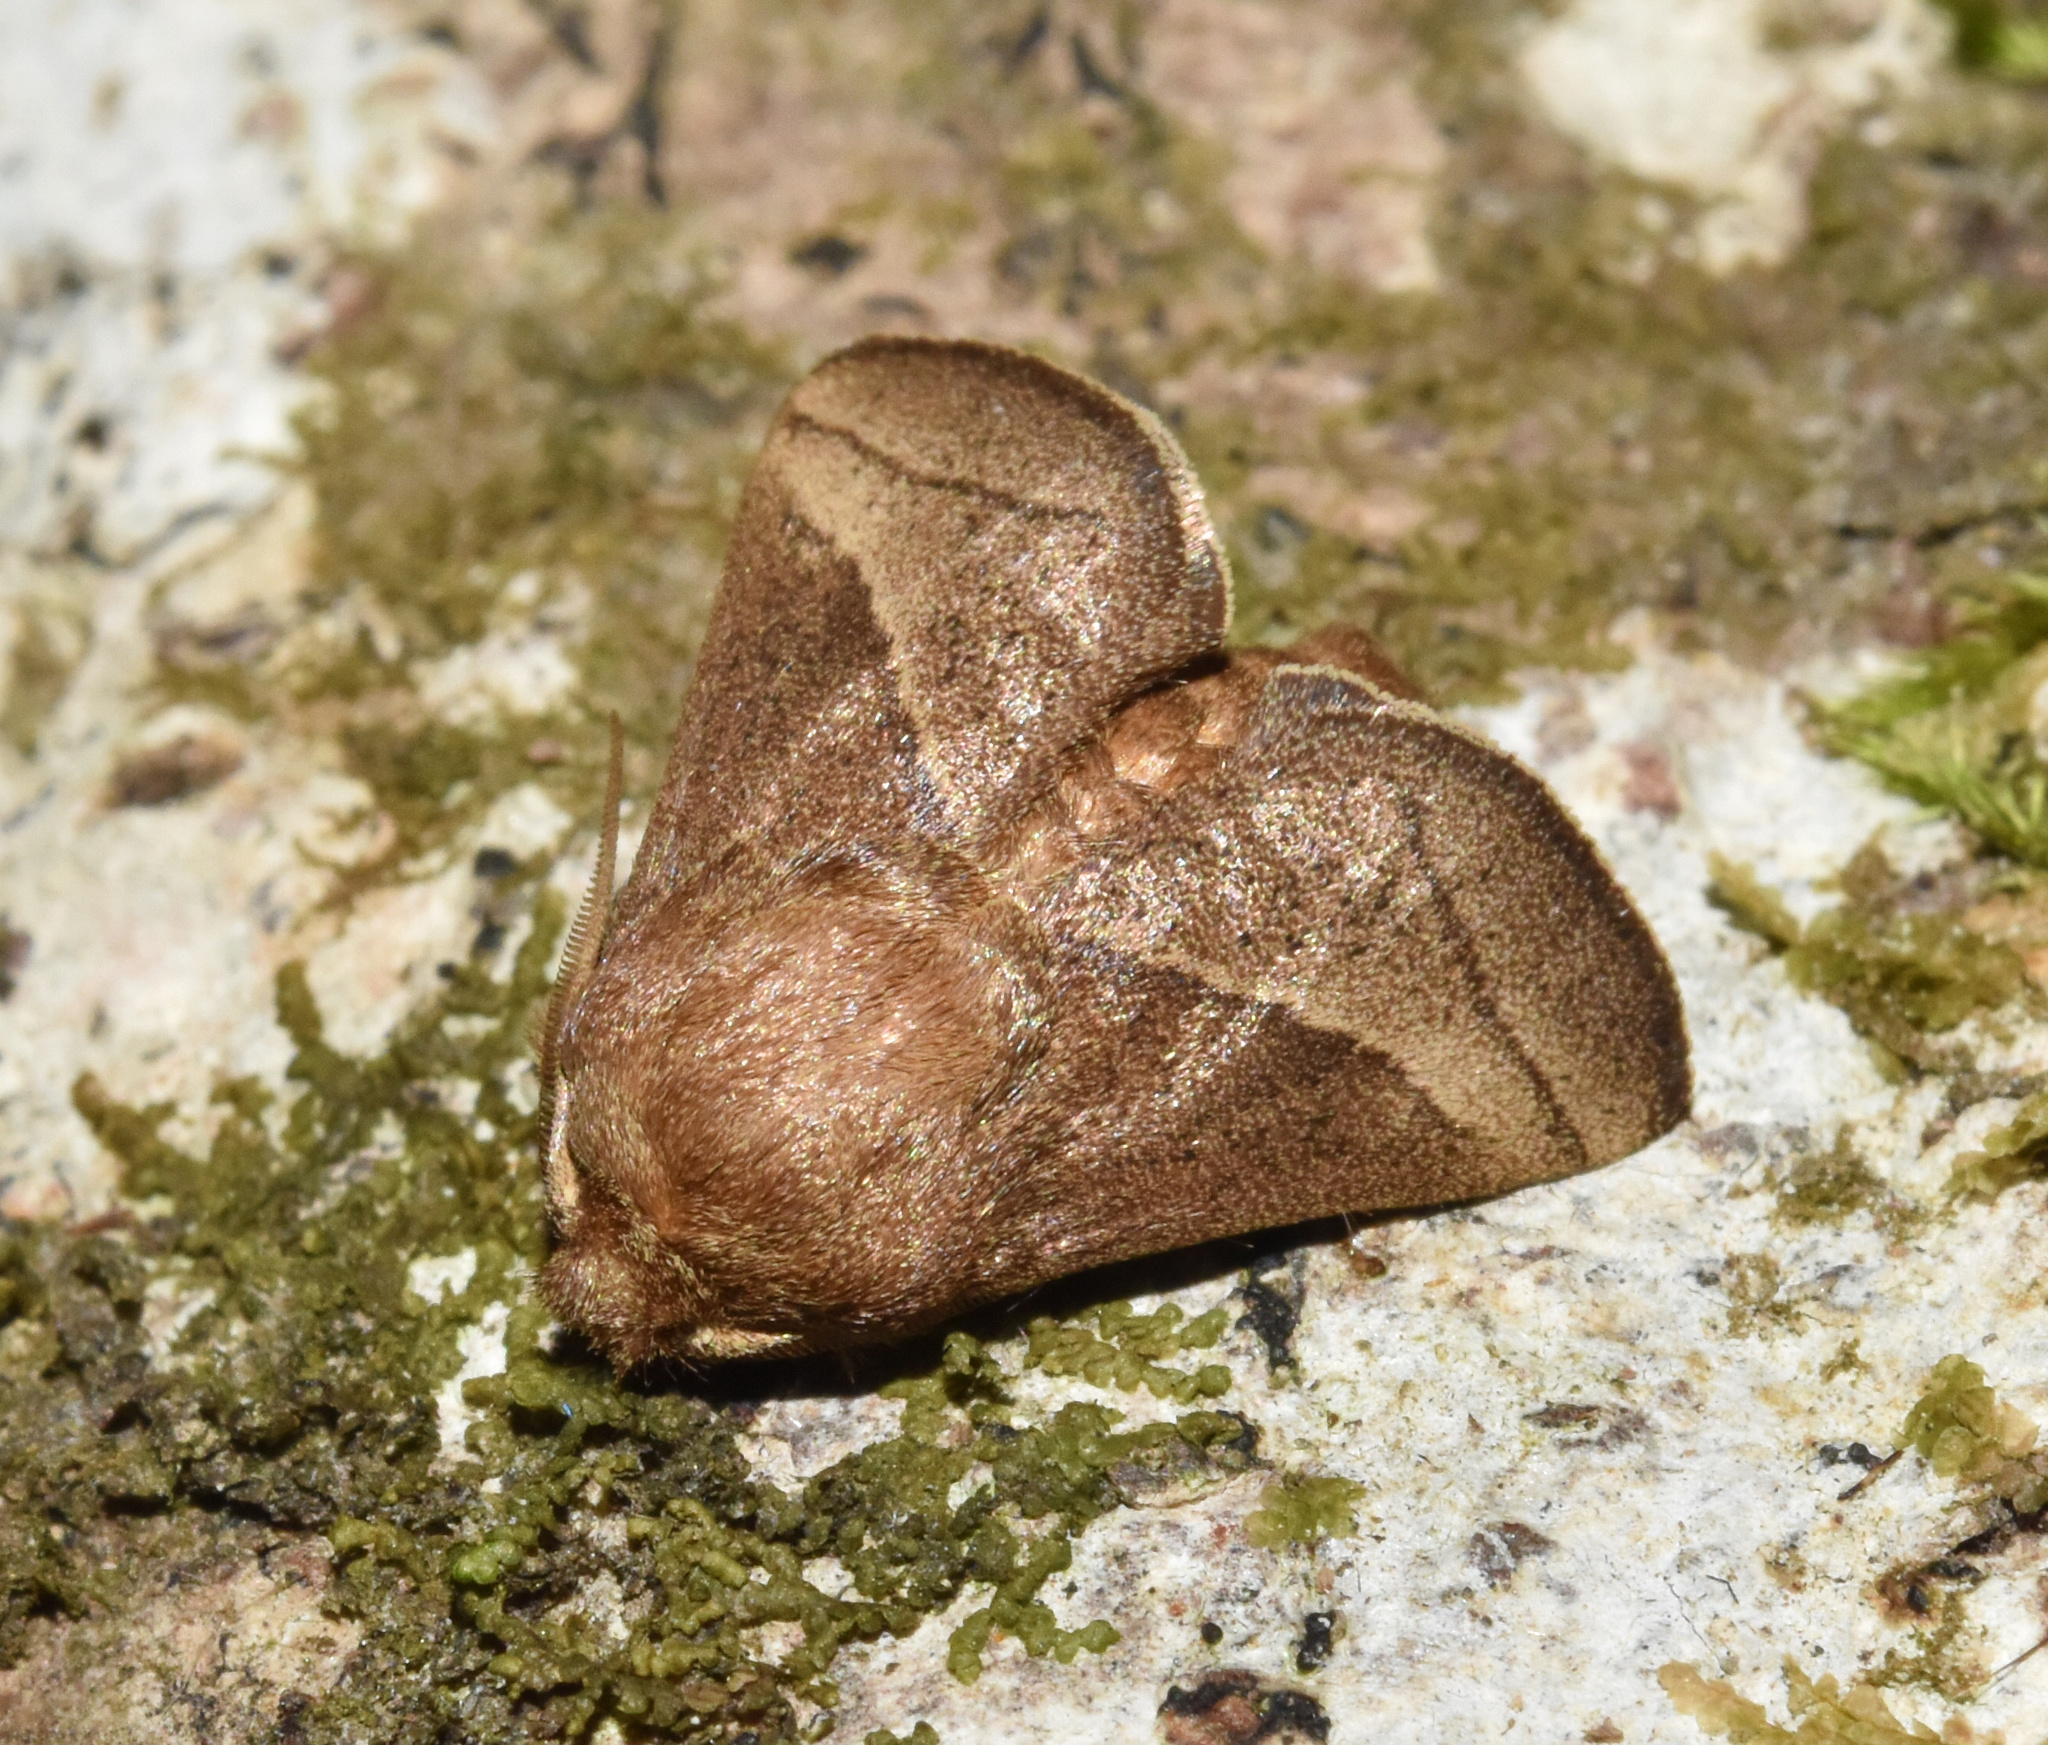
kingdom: Animalia
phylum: Arthropoda
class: Insecta
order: Lepidoptera
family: Limacodidae
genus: Omocenoides
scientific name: Omocenoides isophanes
